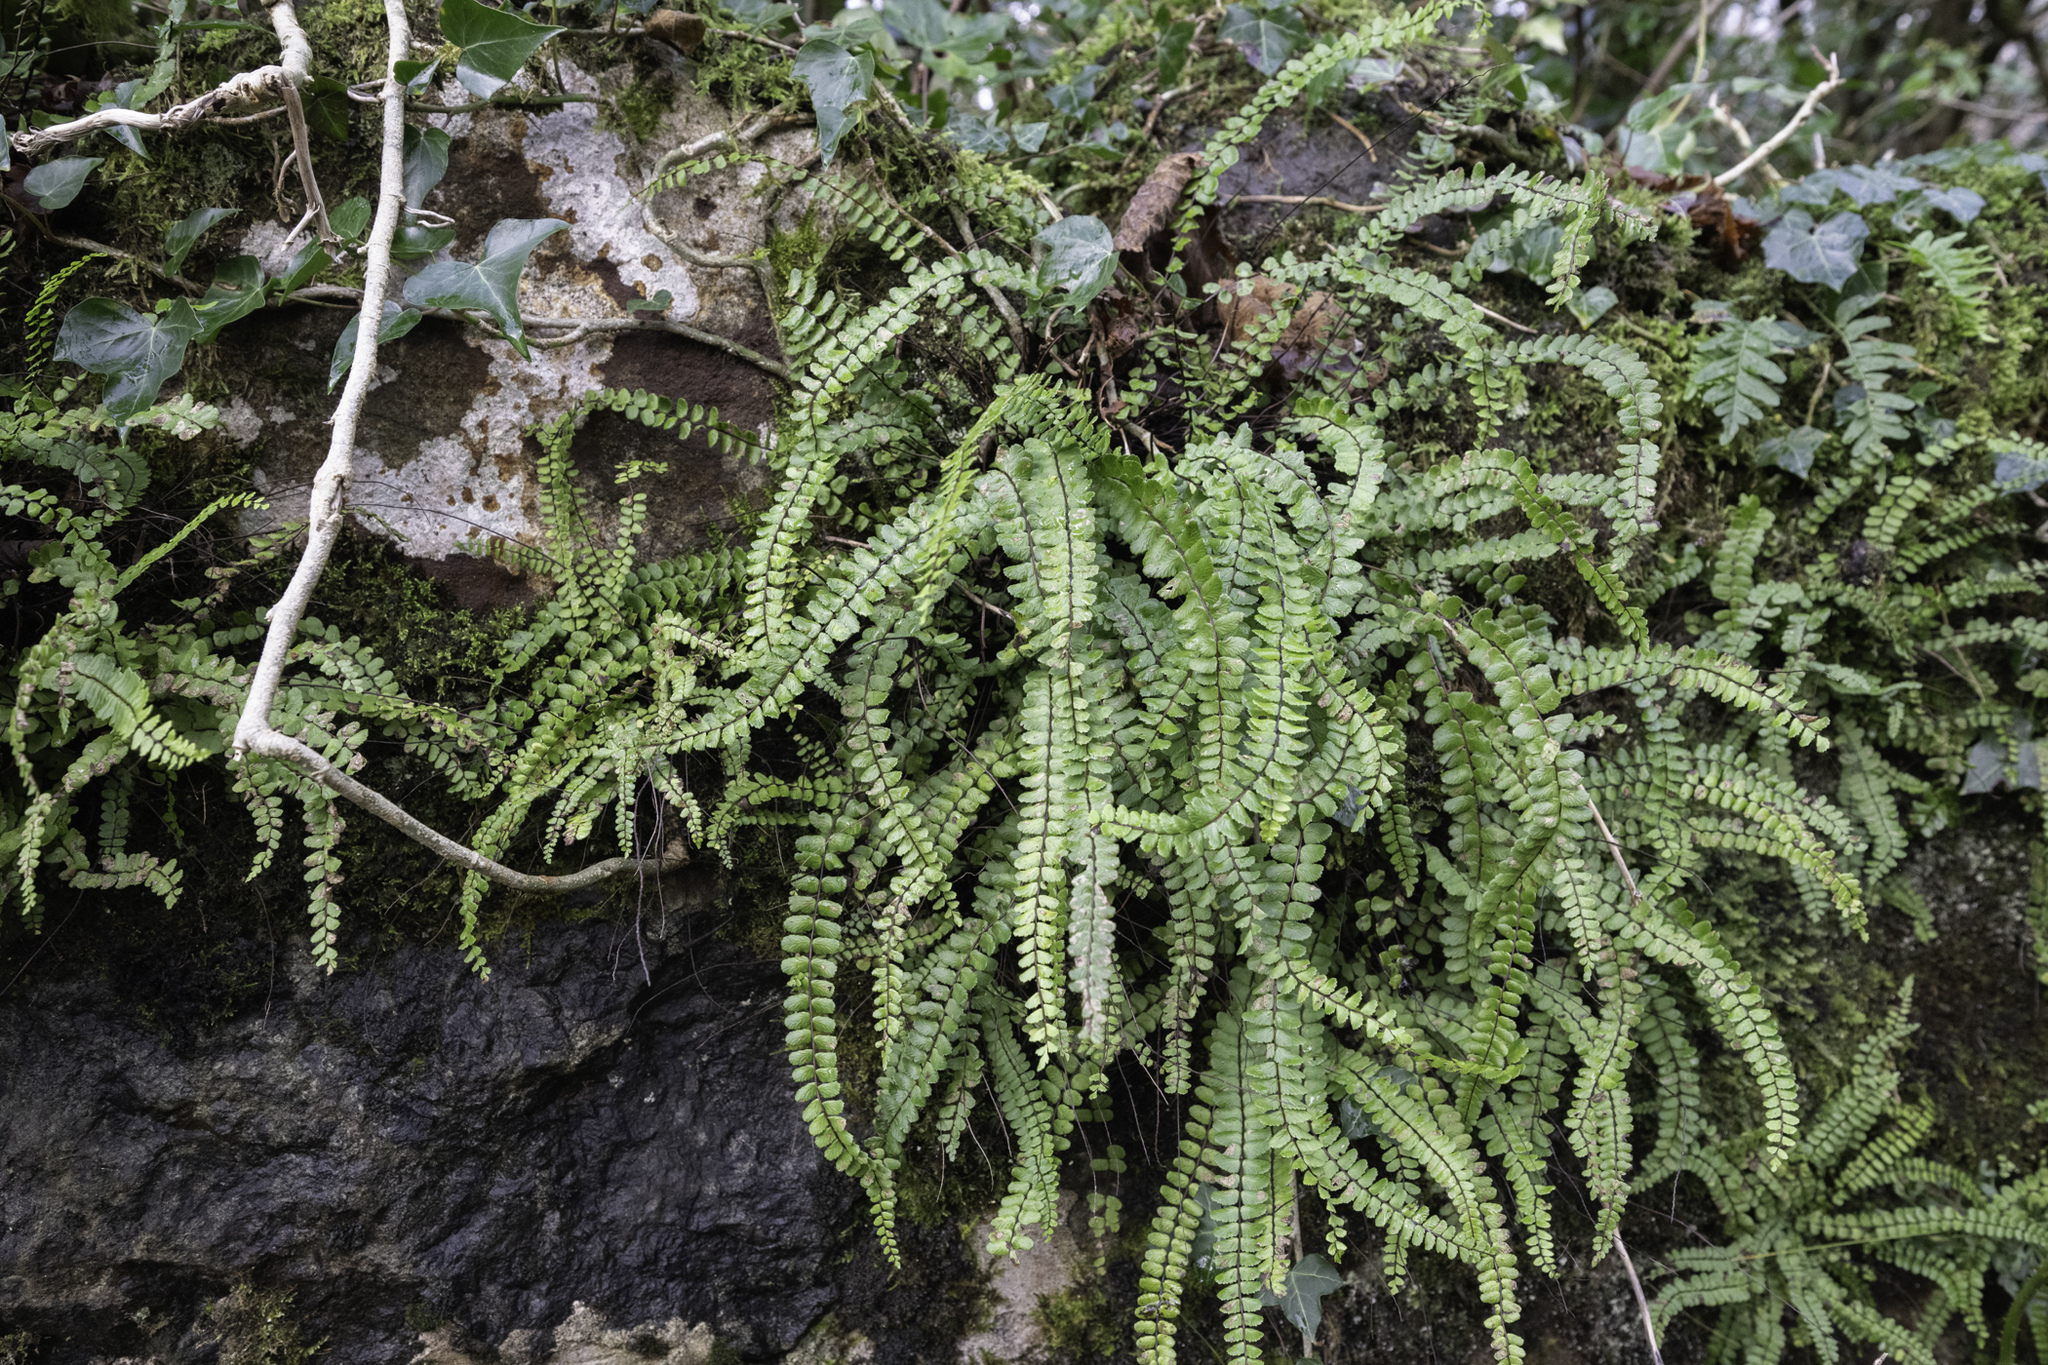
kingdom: Plantae
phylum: Tracheophyta
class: Polypodiopsida
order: Polypodiales
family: Aspleniaceae
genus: Asplenium
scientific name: Asplenium trichomanes
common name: Maidenhair spleenwort
